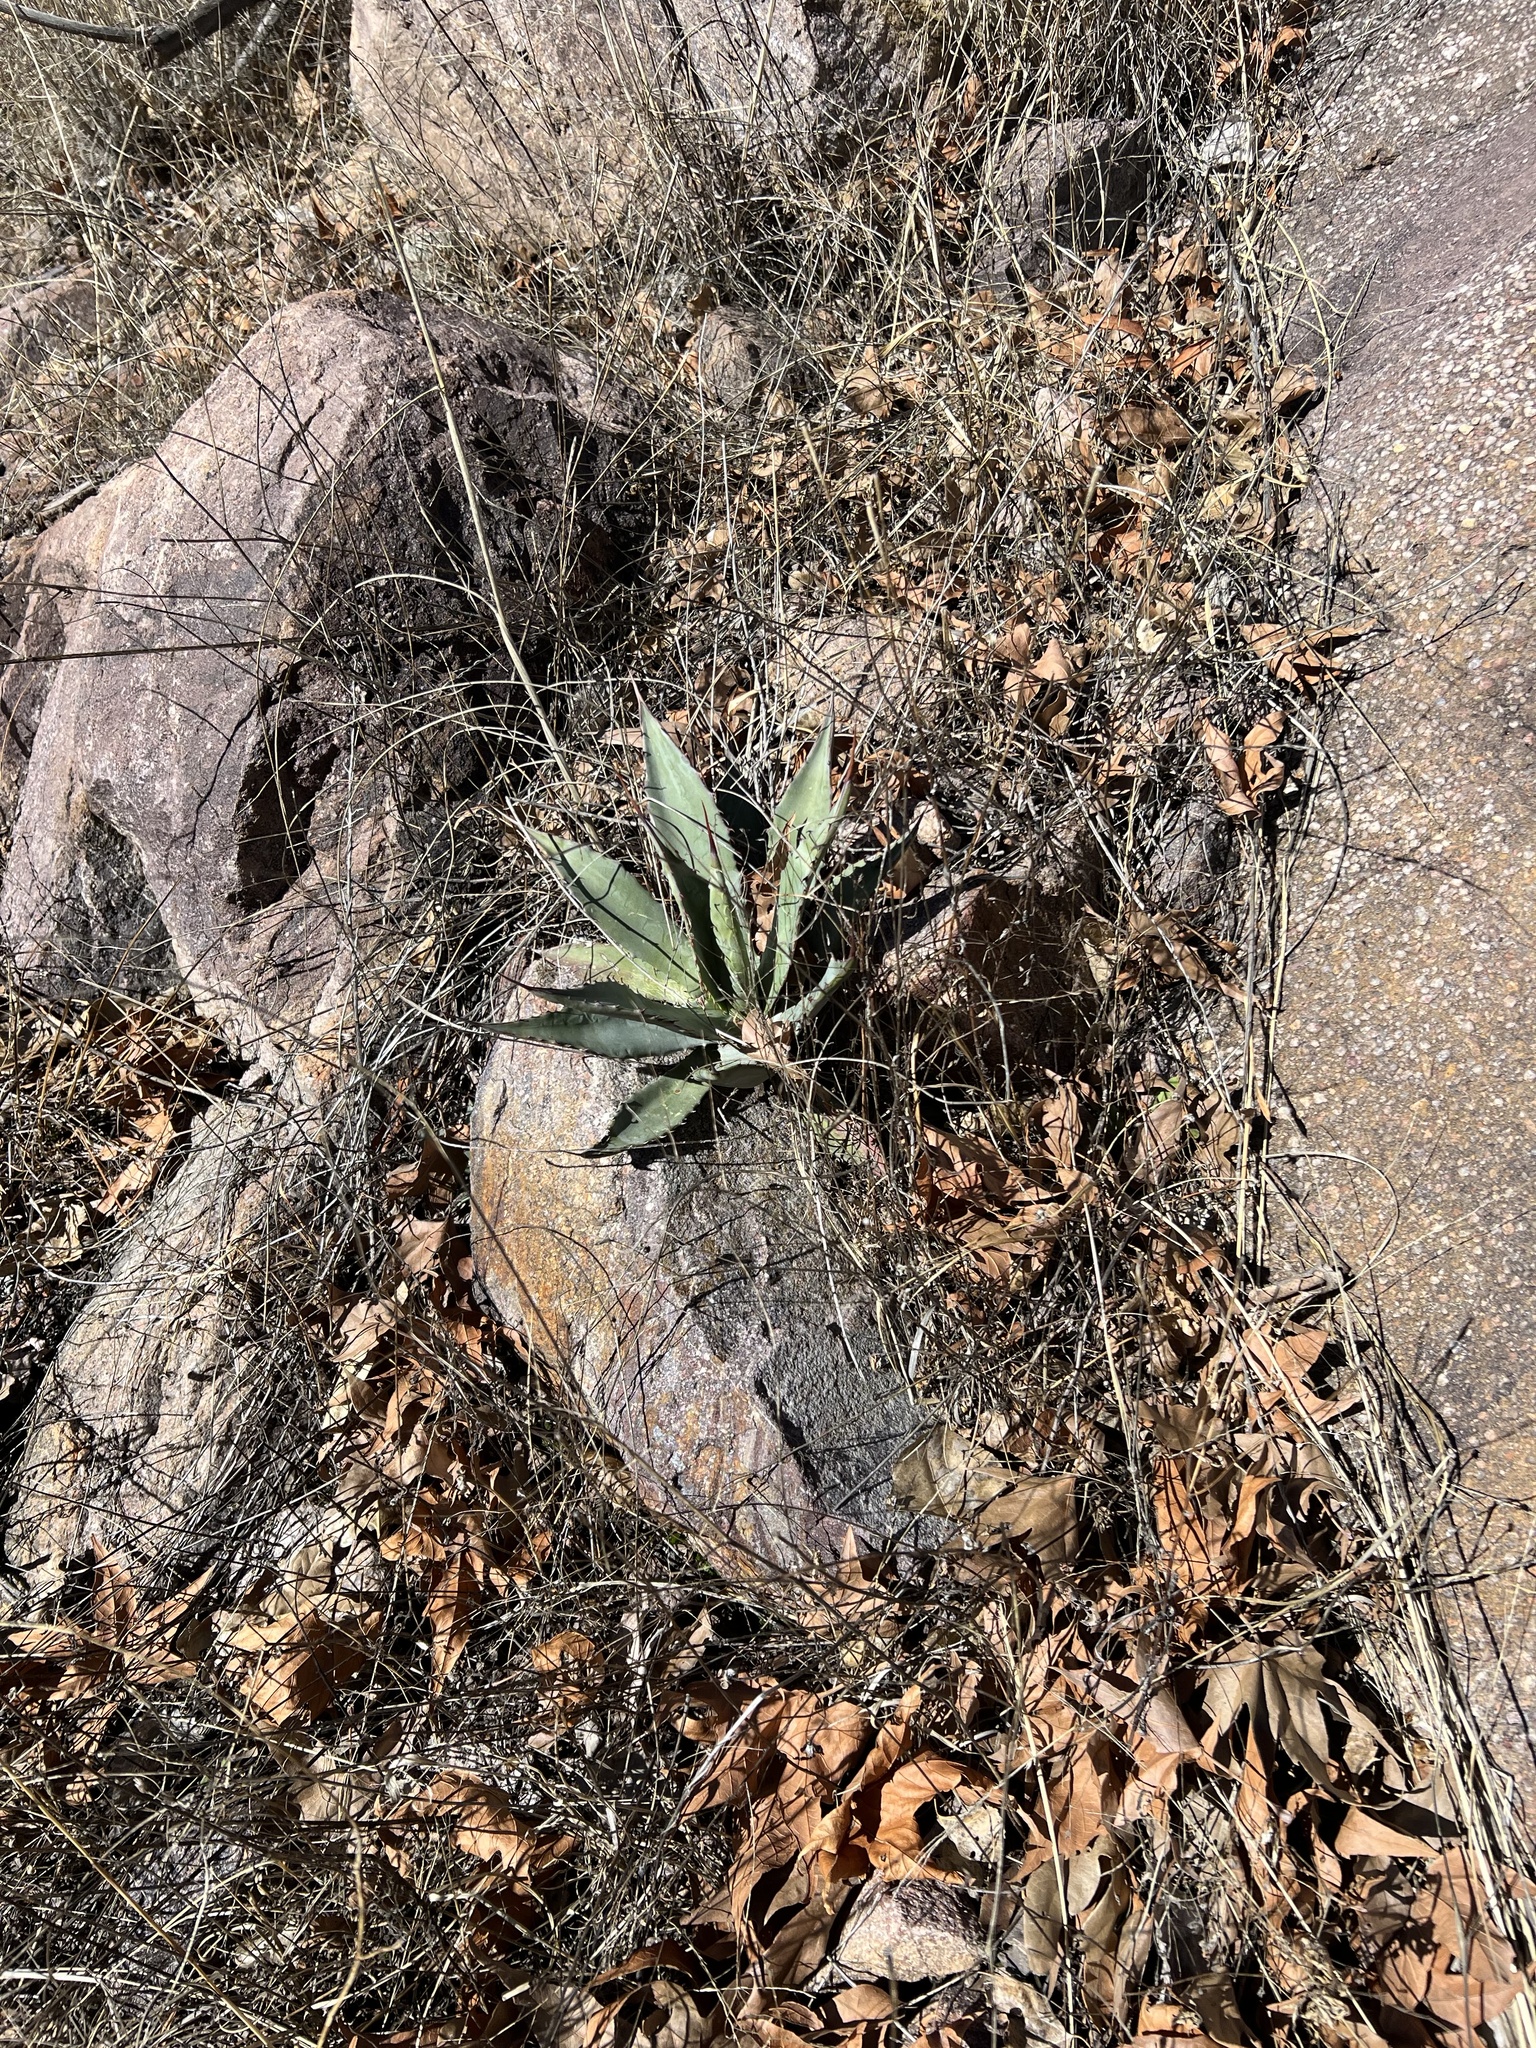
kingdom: Plantae
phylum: Tracheophyta
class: Liliopsida
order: Asparagales
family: Asparagaceae
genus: Agave
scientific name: Agave palmeri
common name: Palmer agave
